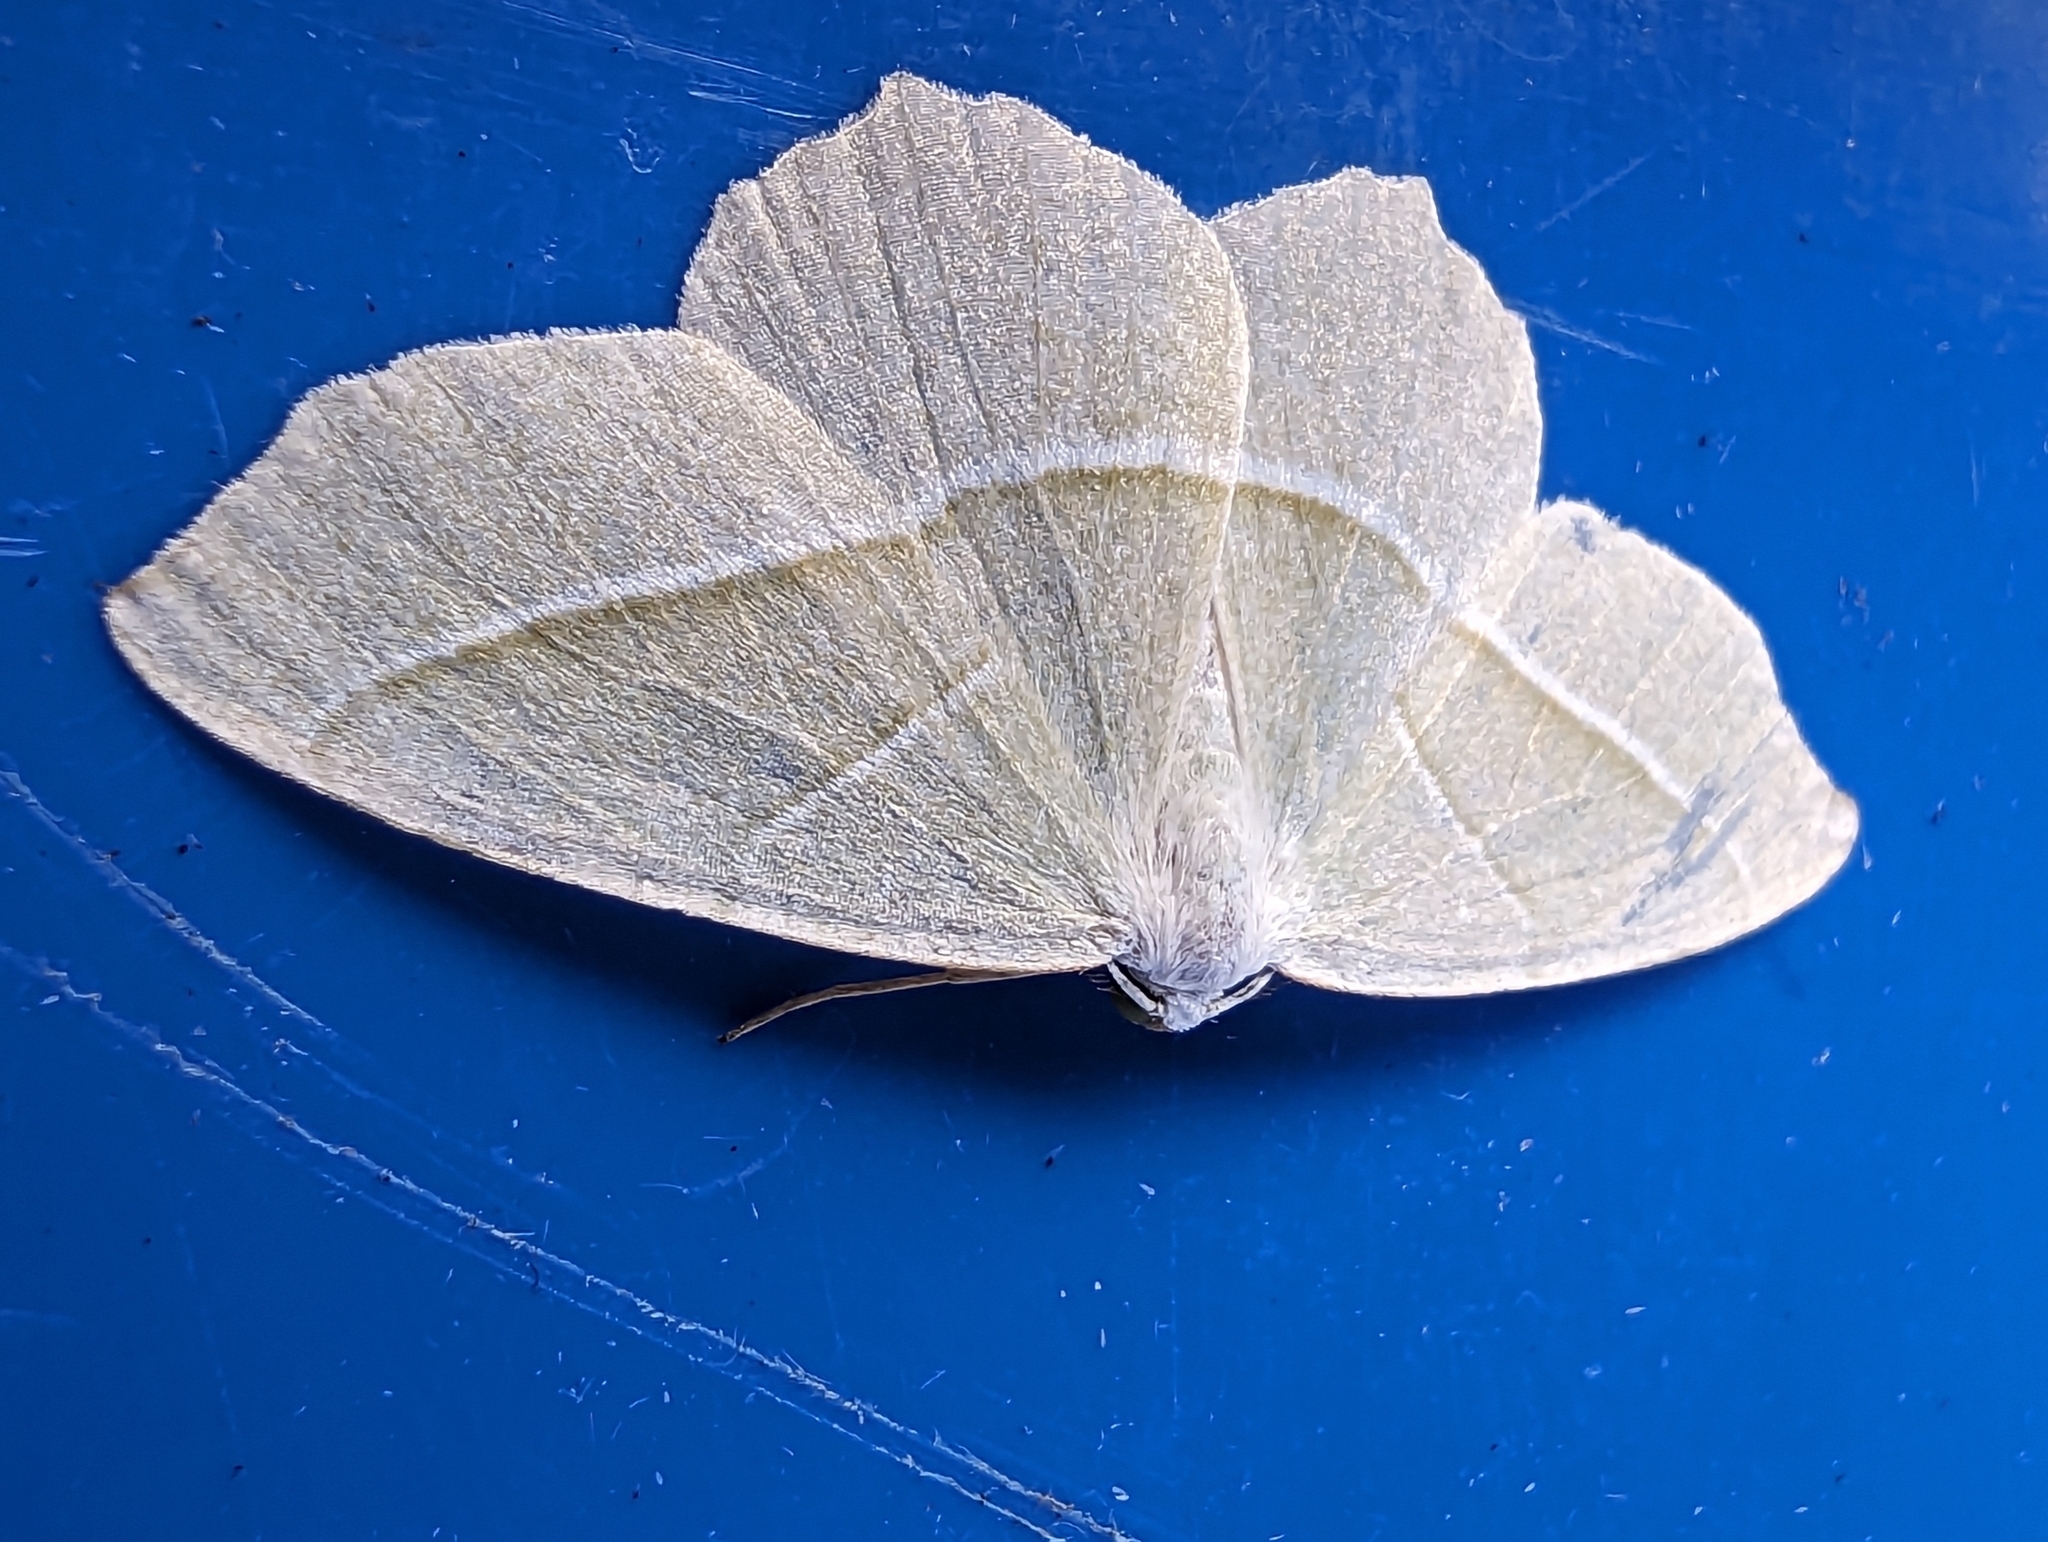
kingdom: Animalia
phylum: Arthropoda
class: Insecta
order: Lepidoptera
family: Geometridae
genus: Campaea
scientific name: Campaea margaritaria
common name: Light emerald
